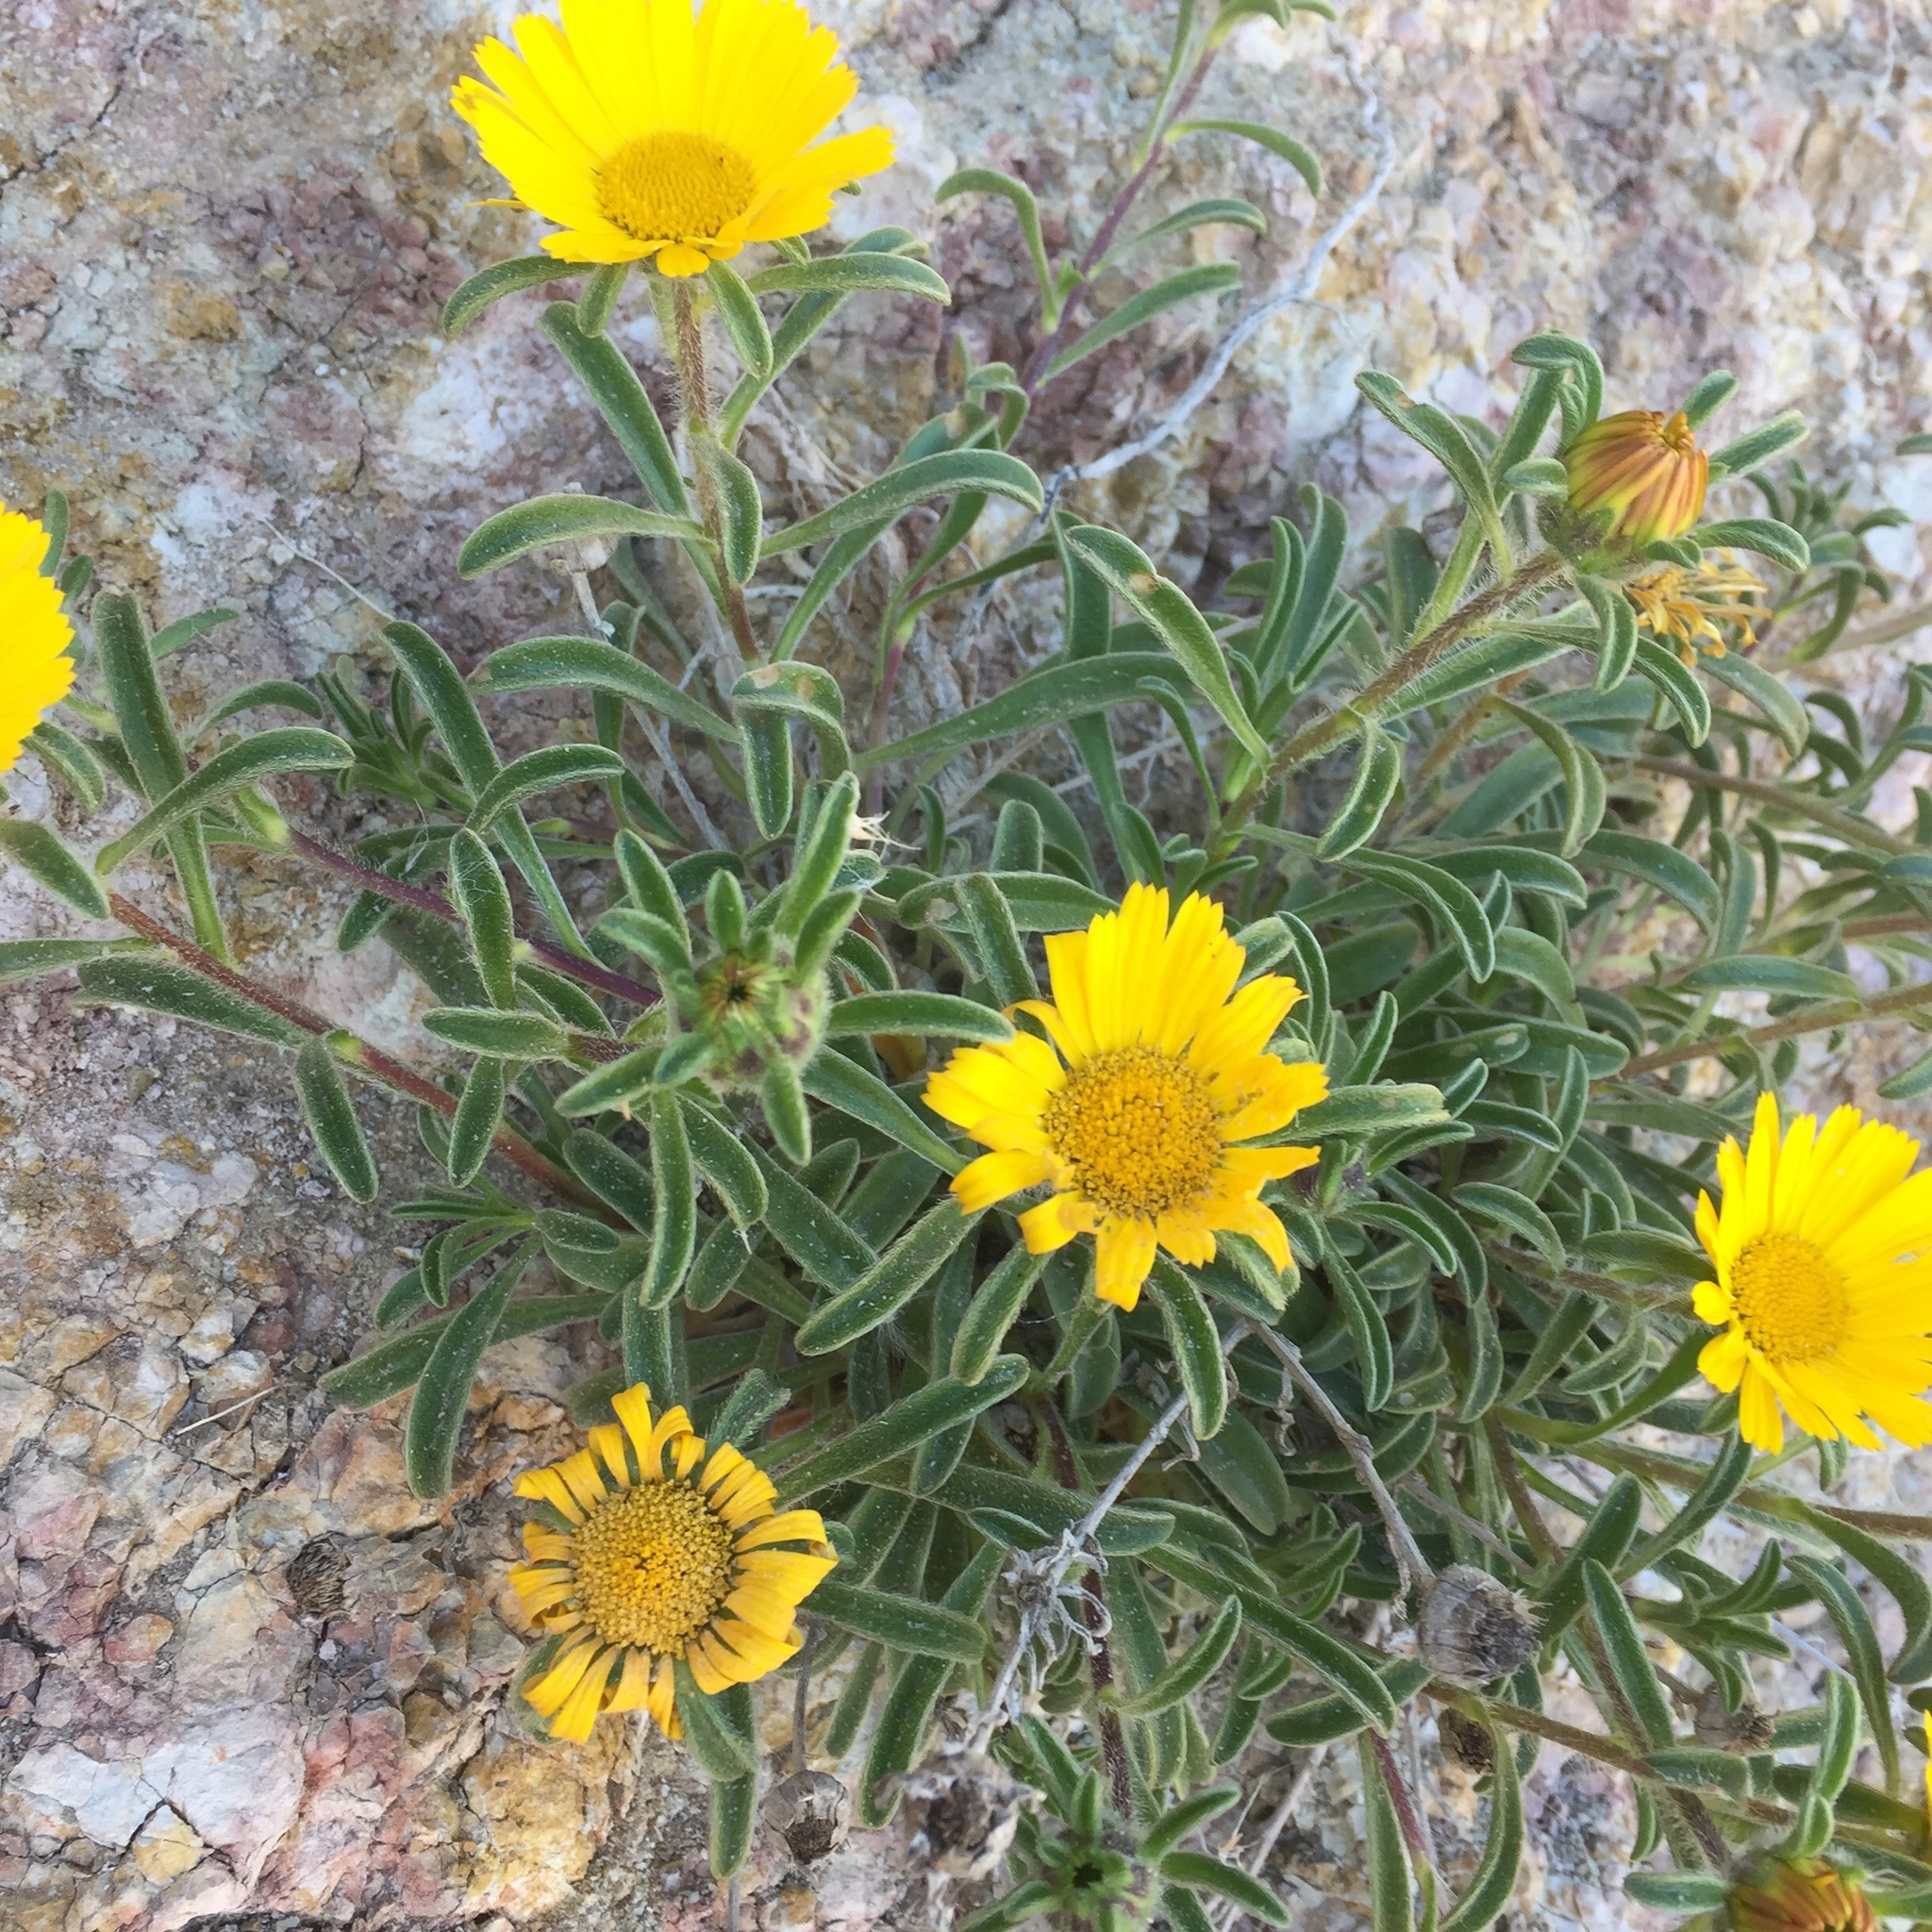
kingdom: Plantae
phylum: Tracheophyta
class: Magnoliopsida
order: Asterales
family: Asteraceae
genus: Pallenis
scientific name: Pallenis maritima
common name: Golden coin daisy
